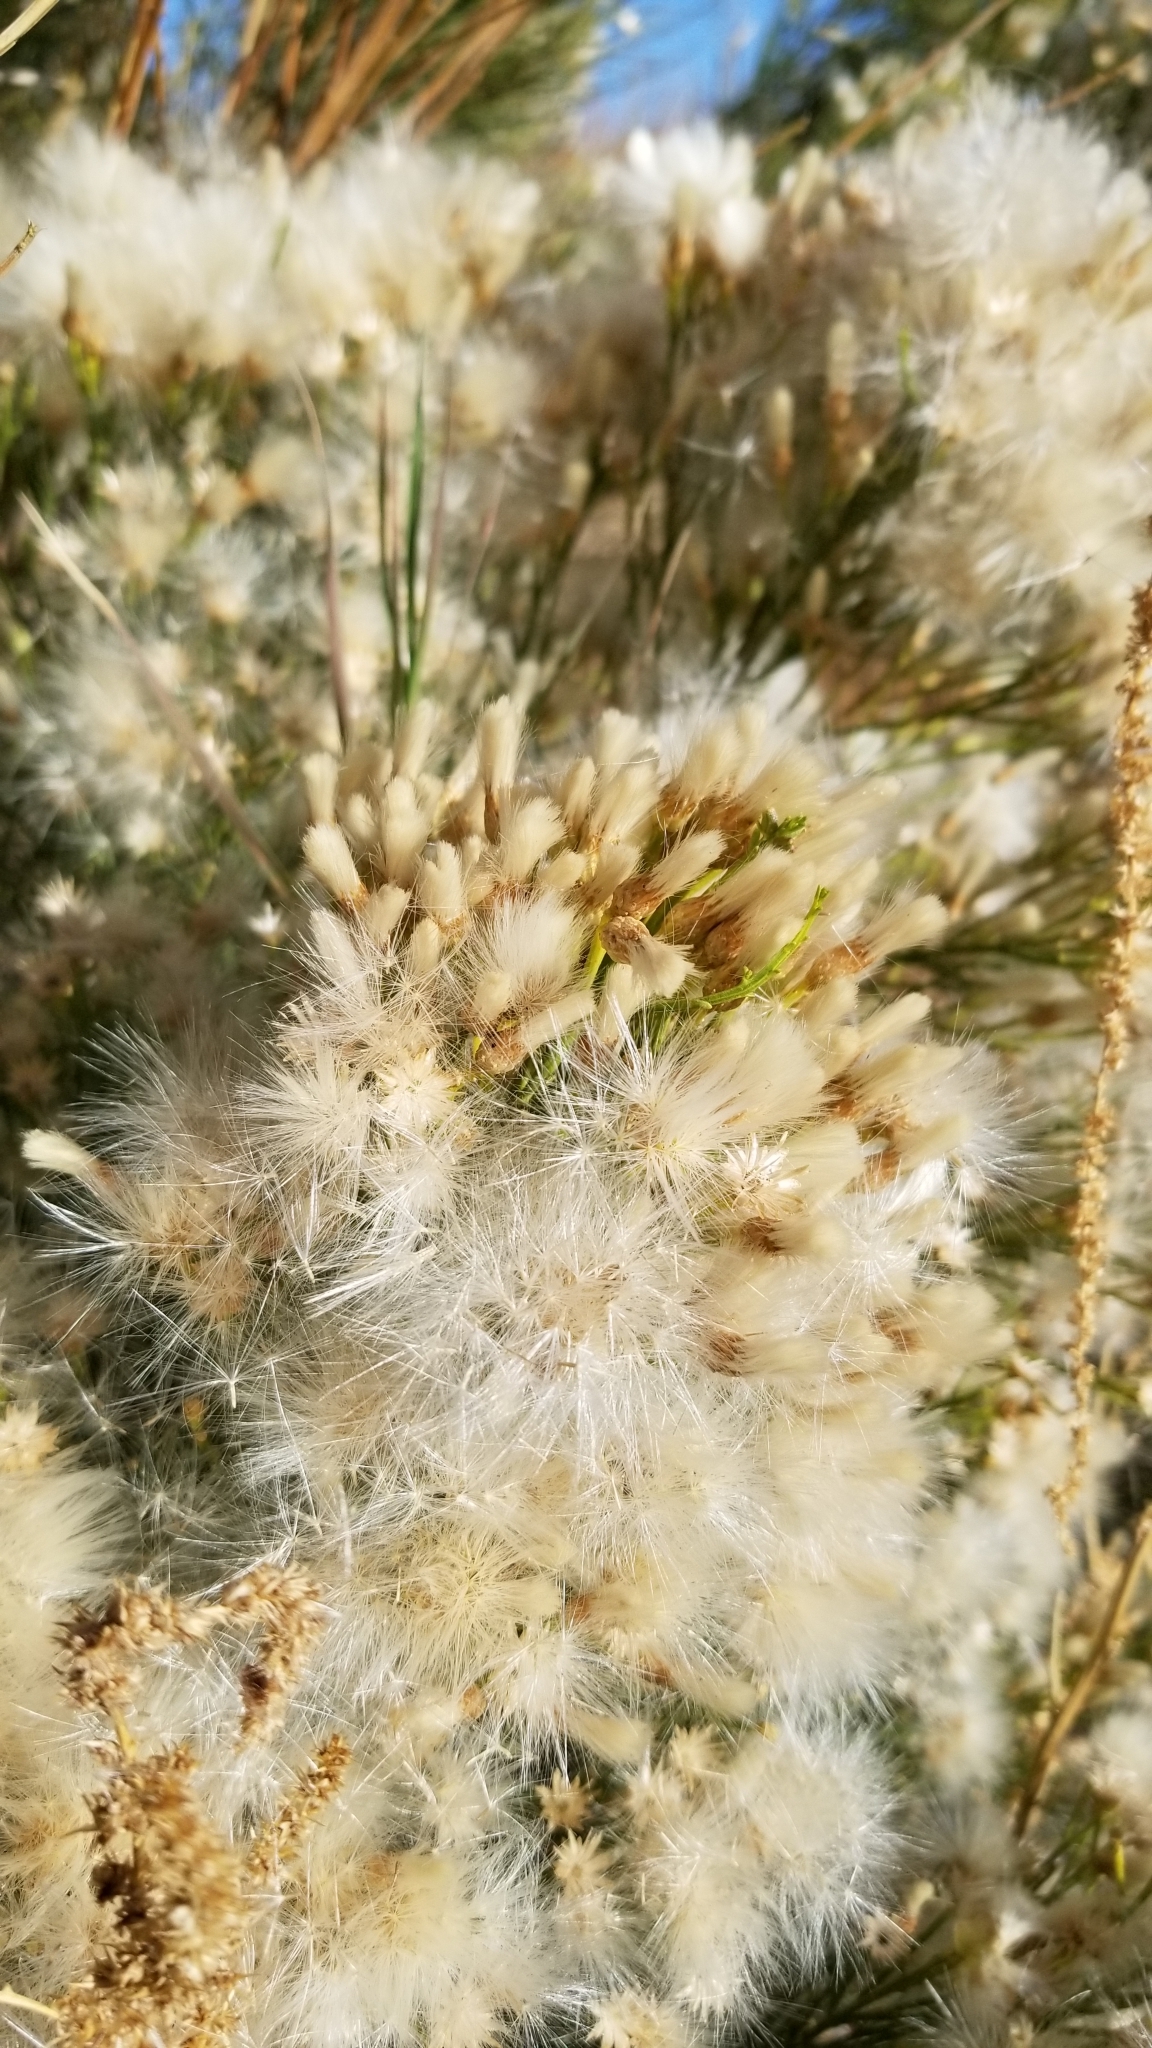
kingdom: Plantae
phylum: Tracheophyta
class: Magnoliopsida
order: Asterales
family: Asteraceae
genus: Baccharis
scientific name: Baccharis sarothroides
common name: Desert-broom
